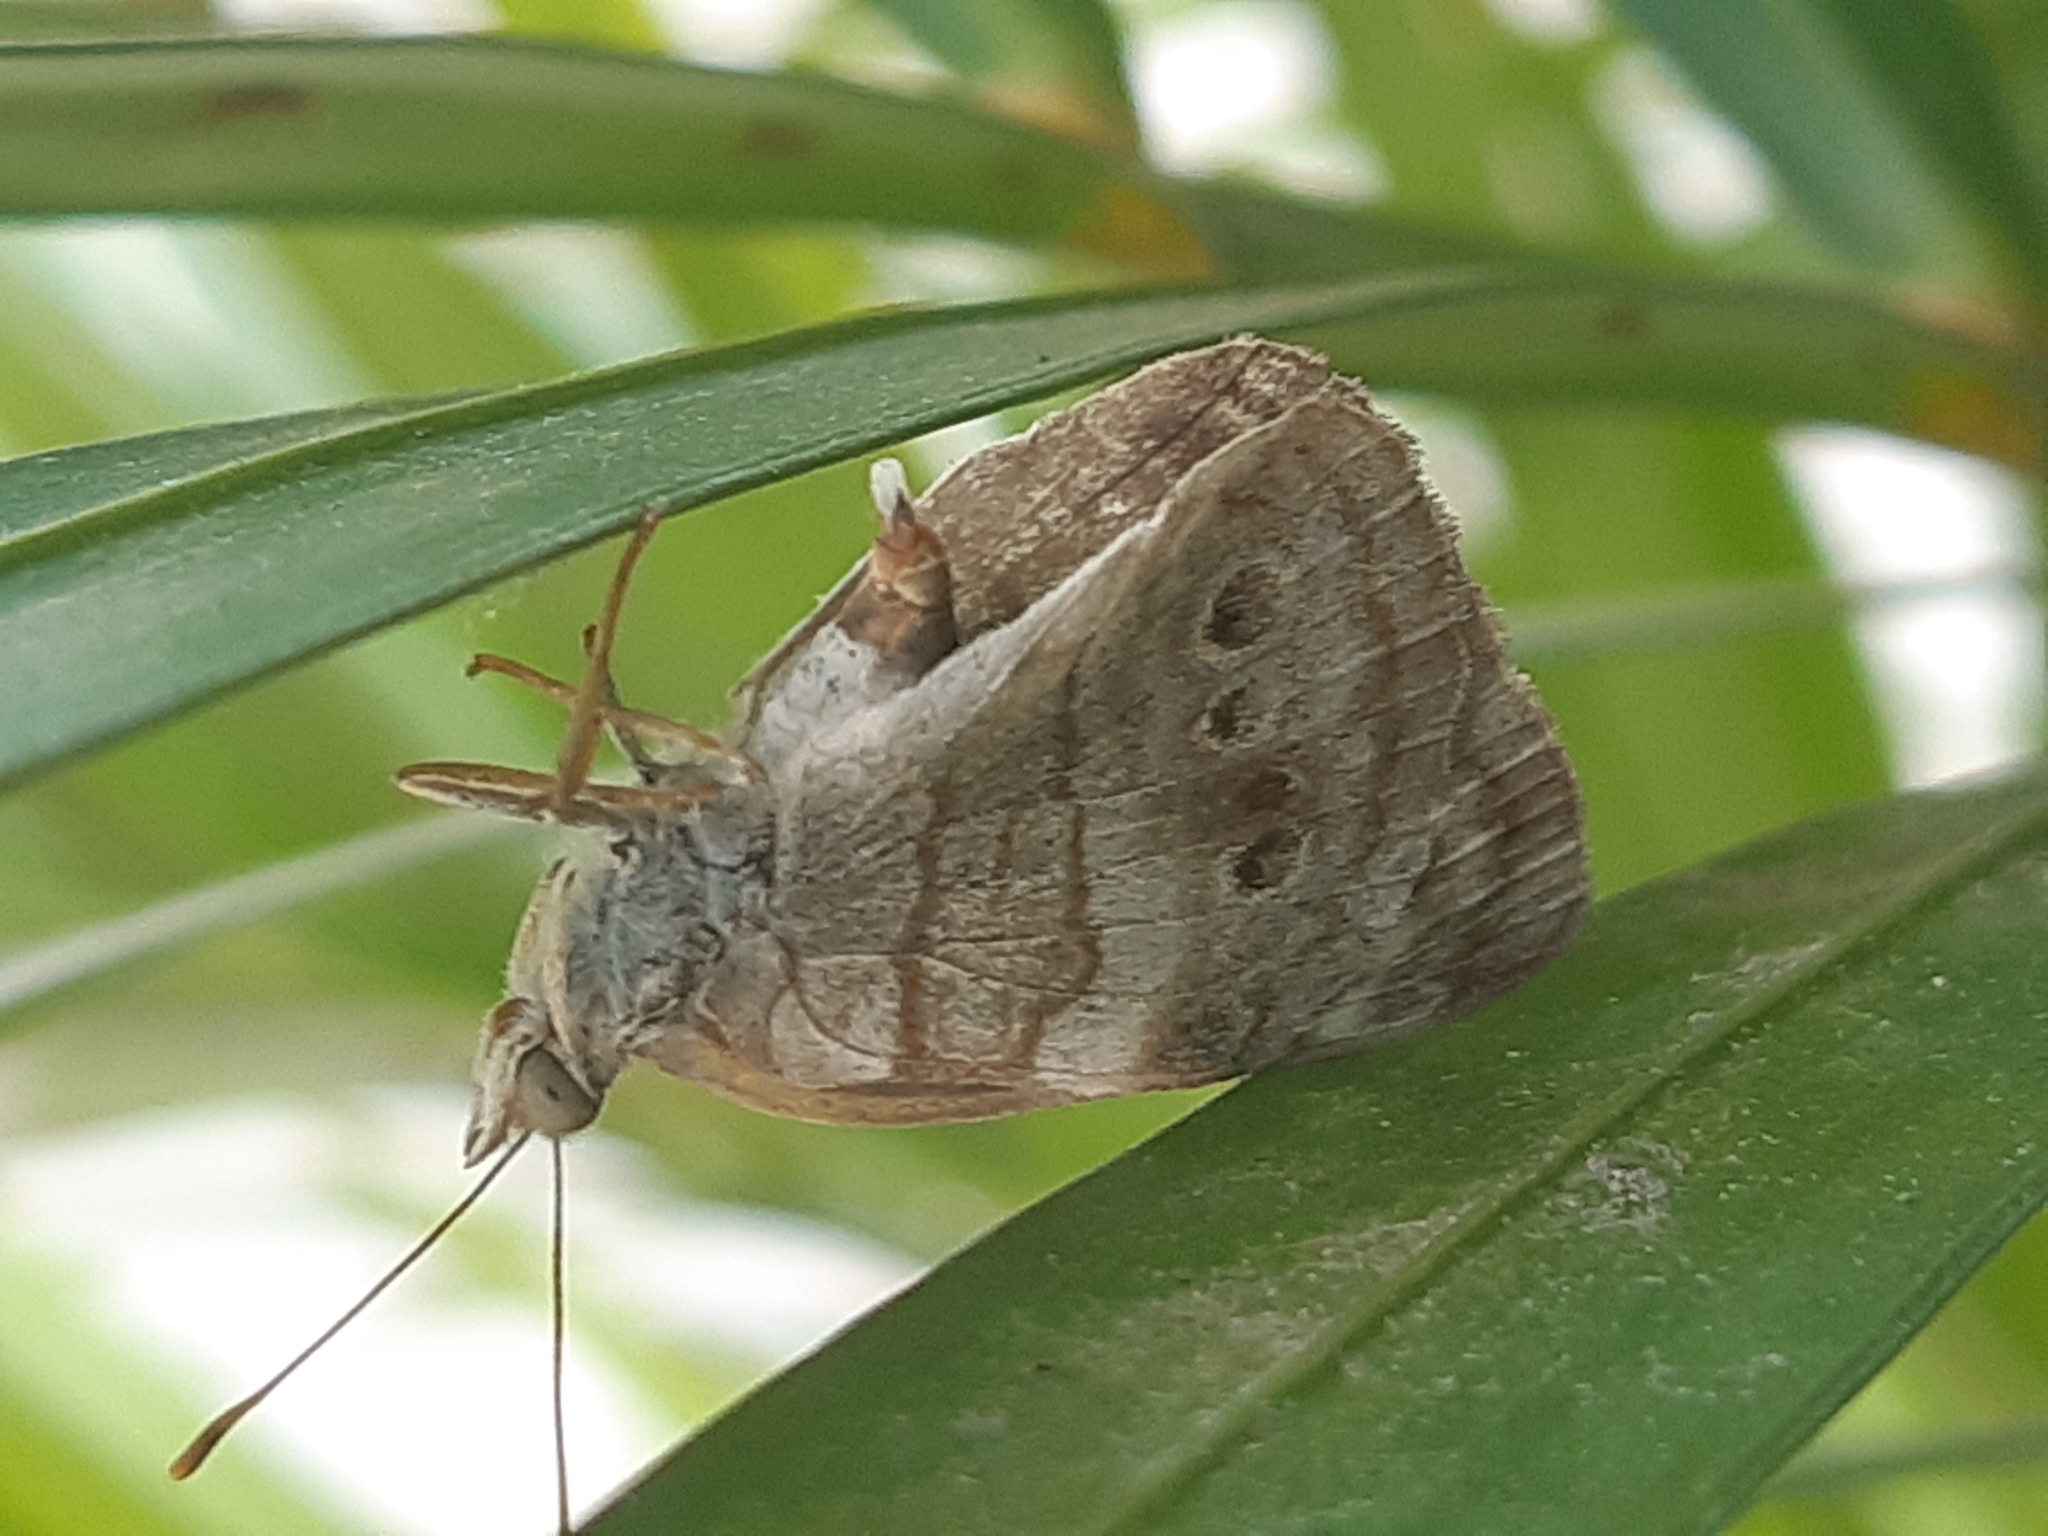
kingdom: Animalia
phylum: Arthropoda
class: Insecta
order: Lepidoptera
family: Nymphalidae
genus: Dynamine
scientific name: Dynamine haenschi
